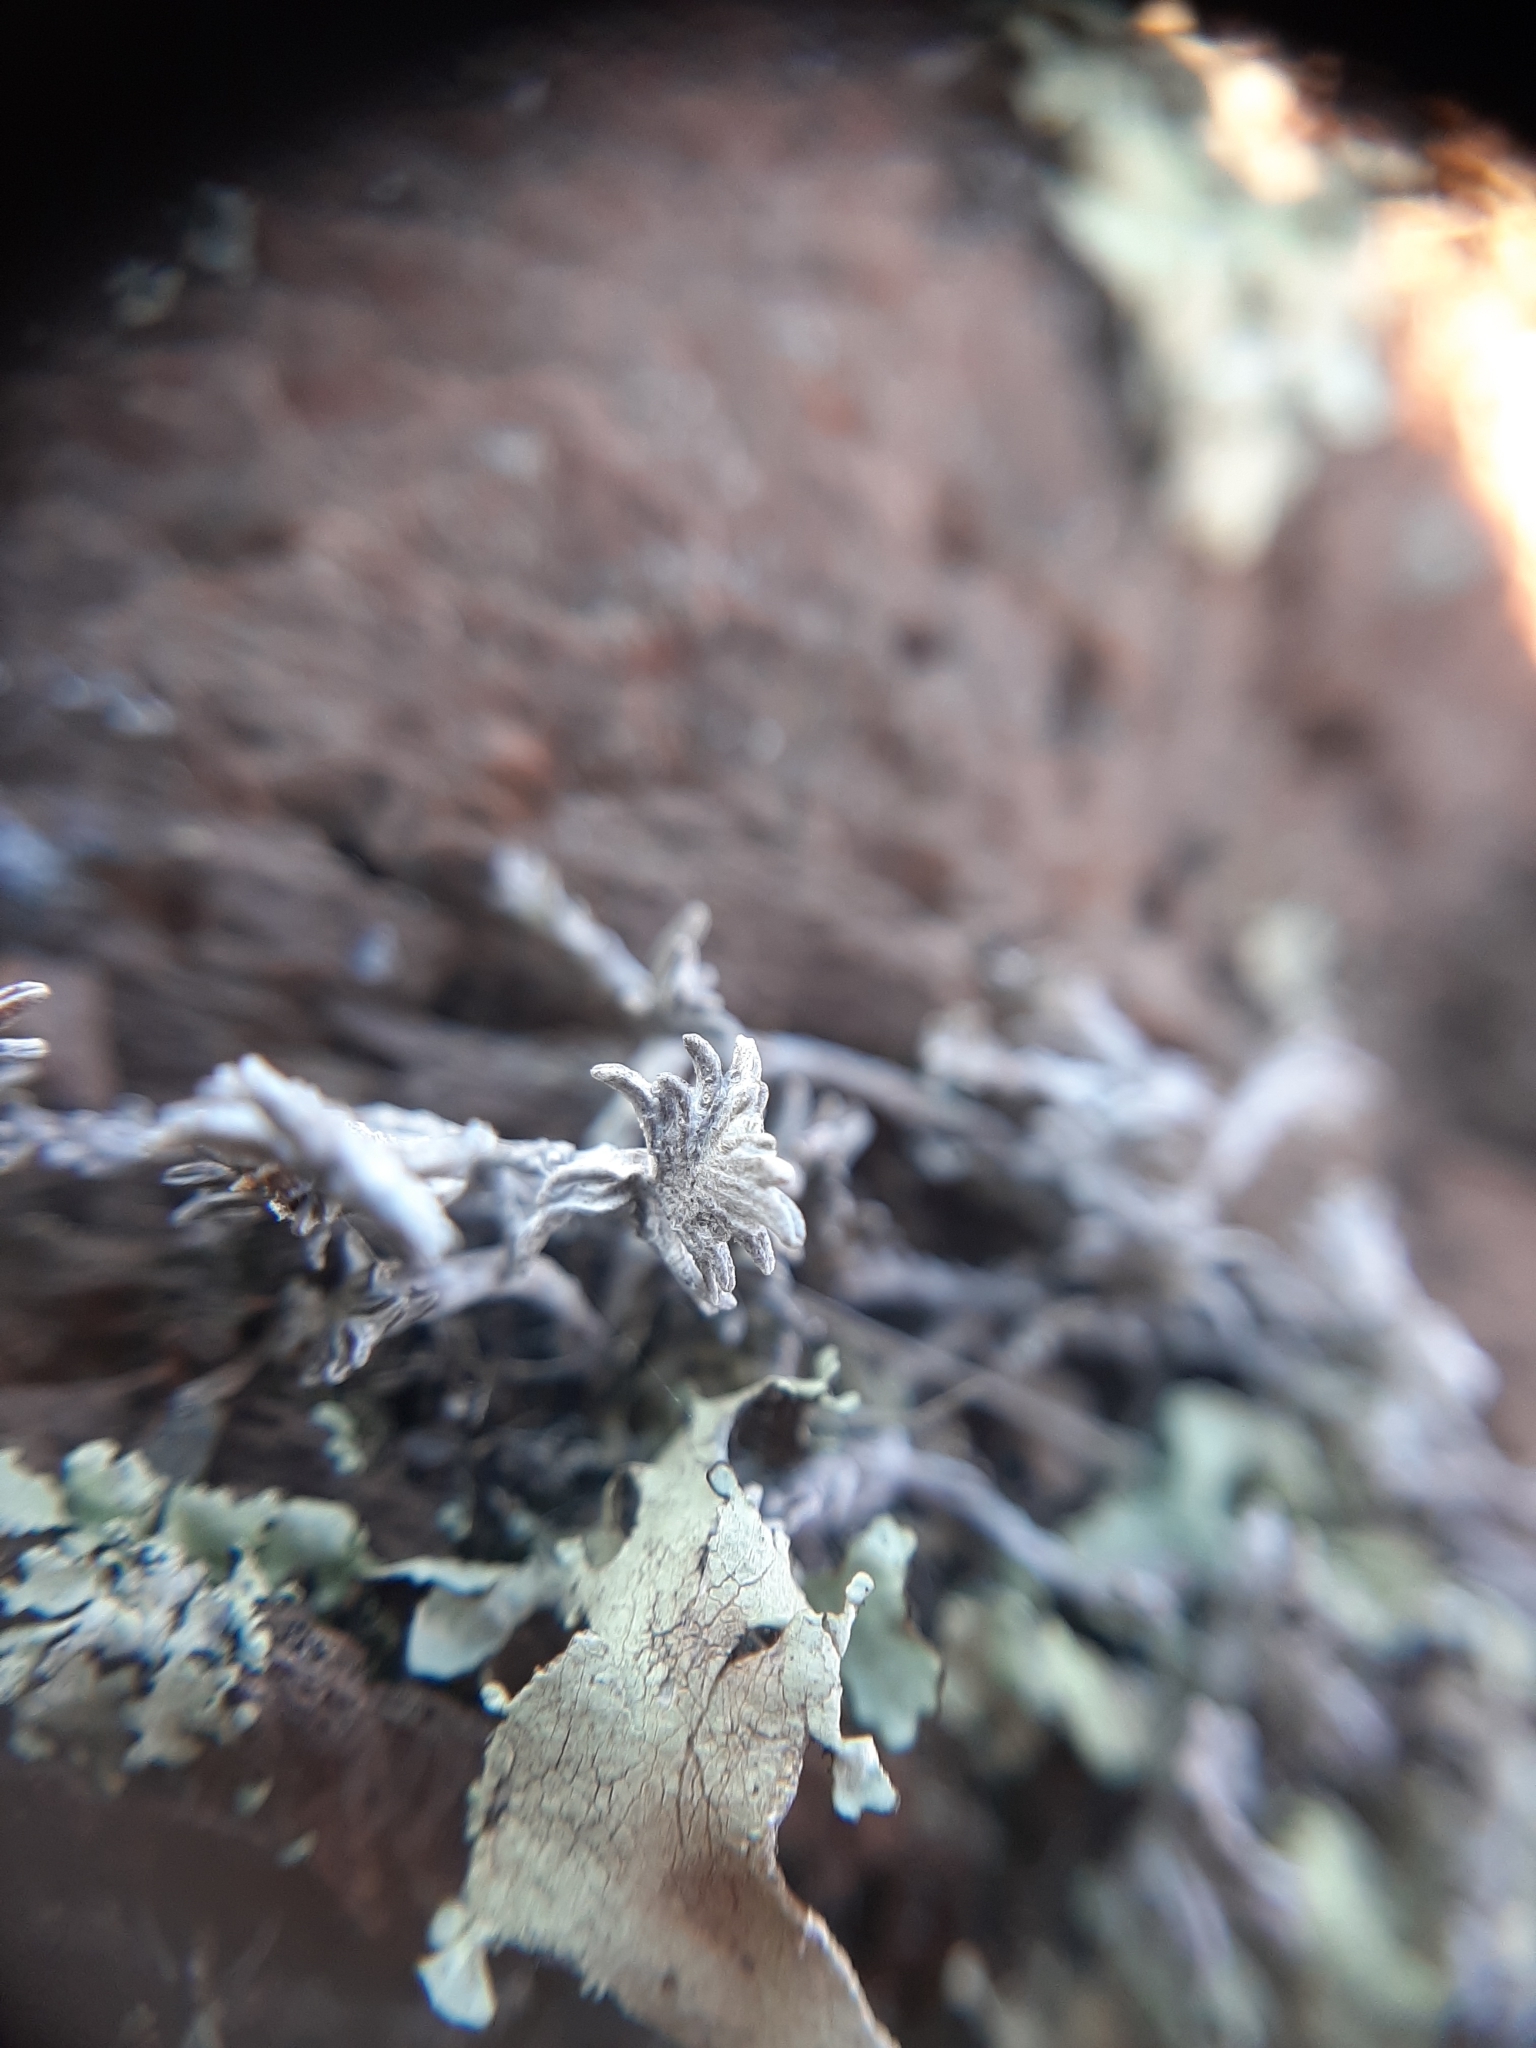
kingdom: Plantae
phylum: Tracheophyta
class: Magnoliopsida
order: Asterales
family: Asteraceae
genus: Raoulia
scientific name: Raoulia monroi
